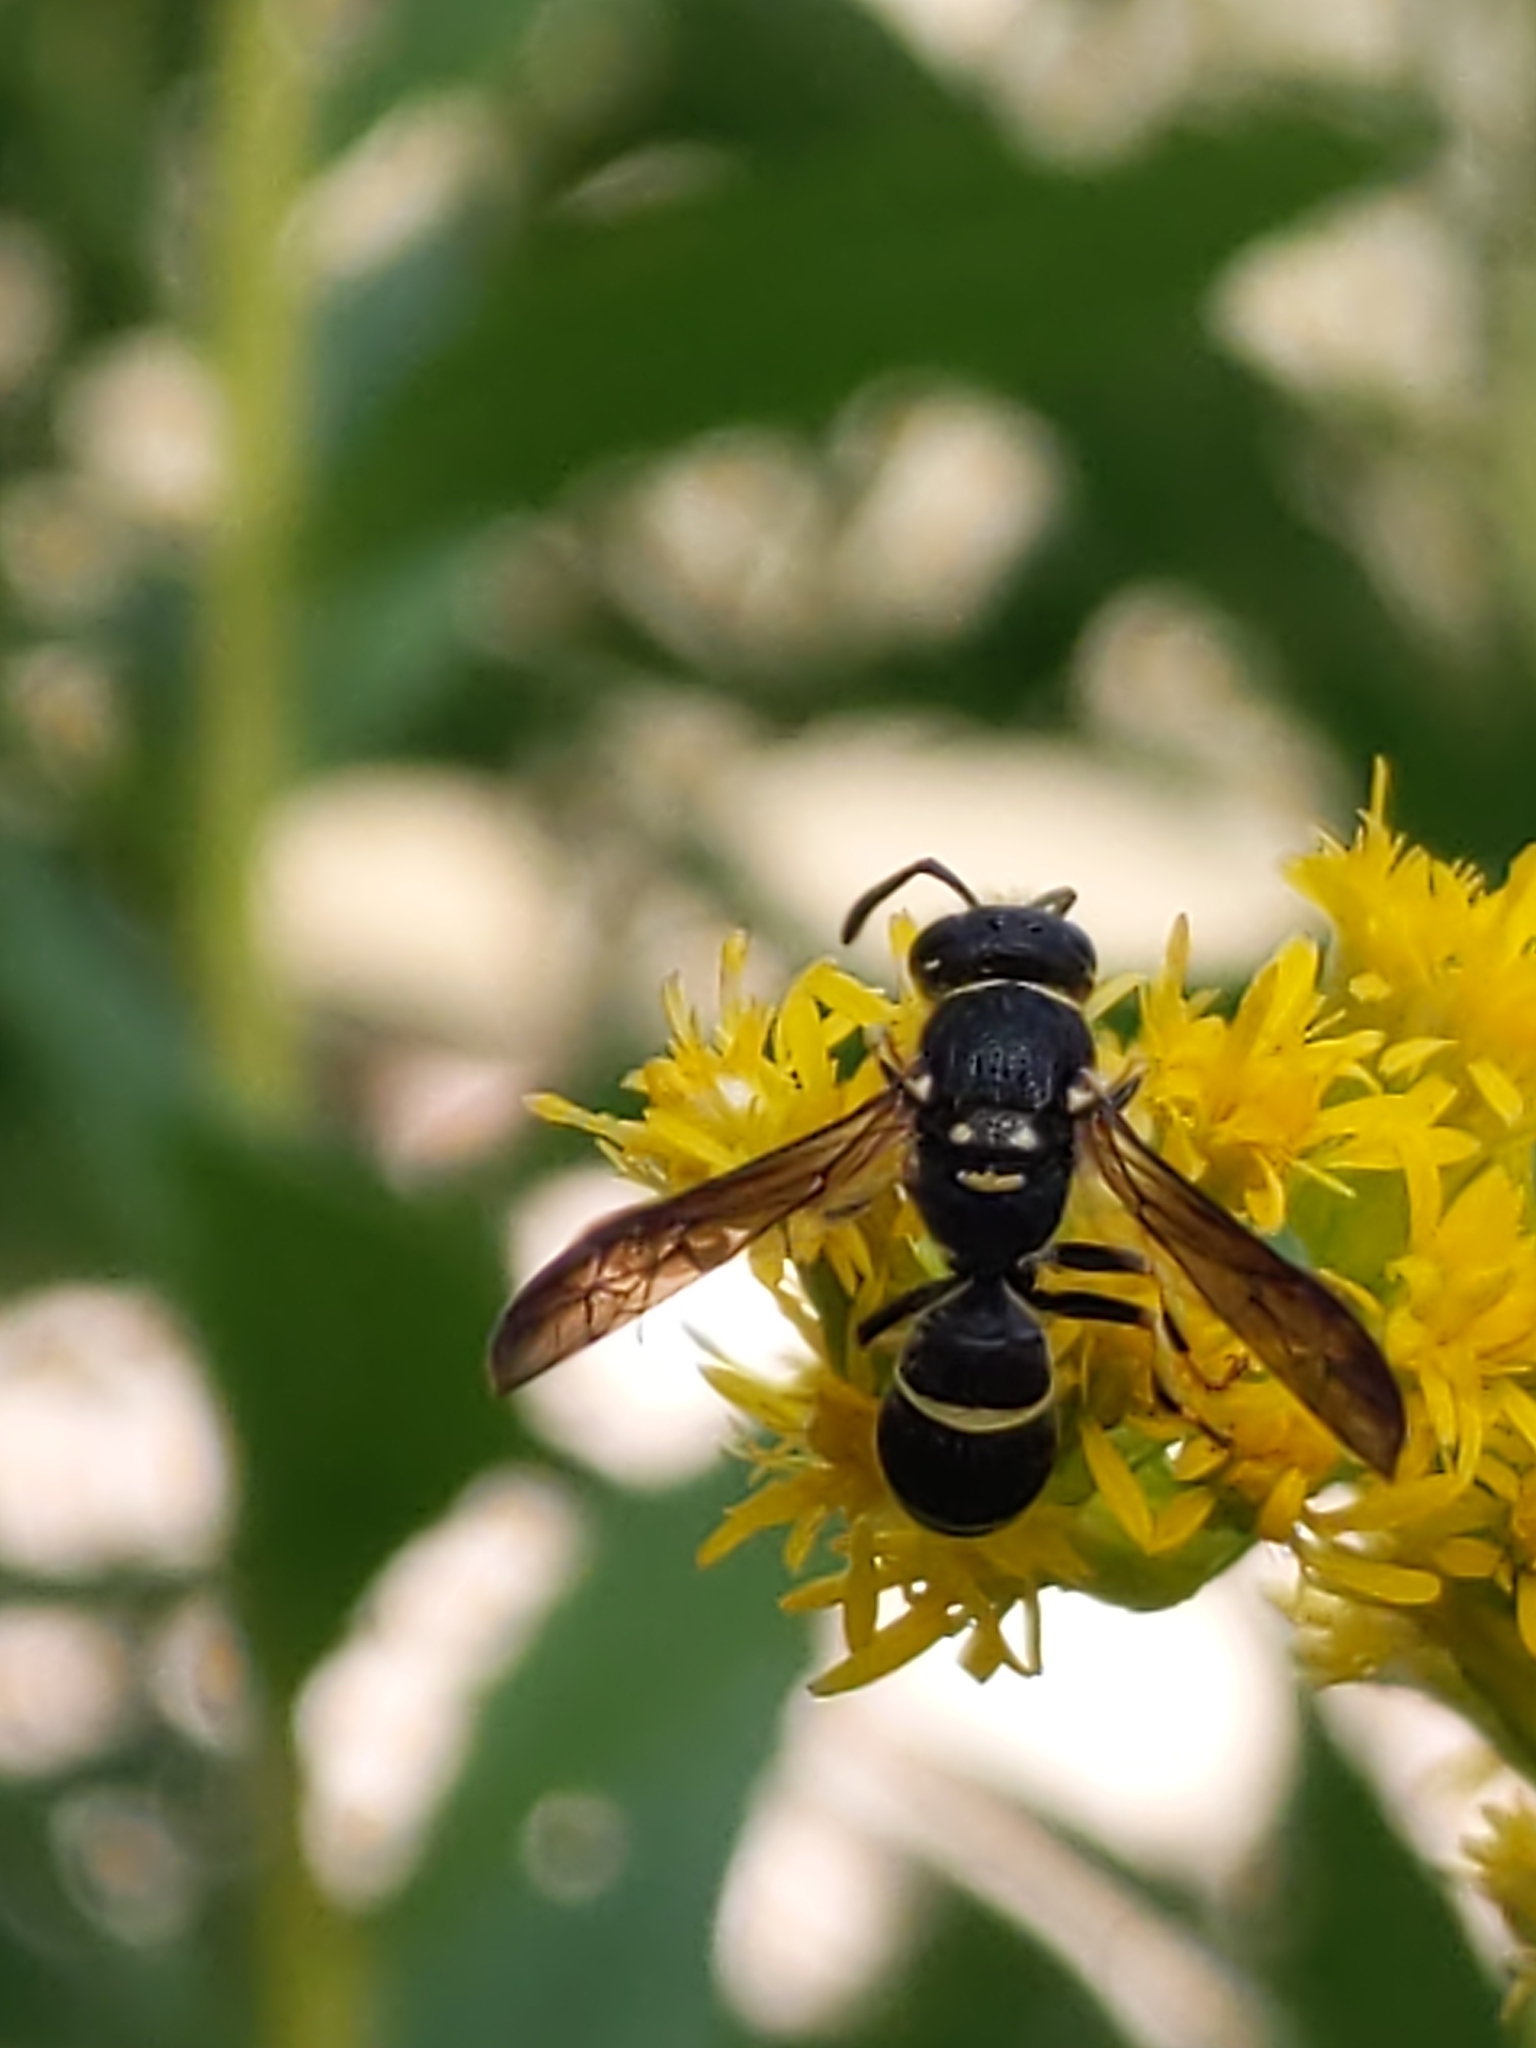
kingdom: Animalia
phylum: Arthropoda
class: Insecta
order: Hymenoptera
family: Vespidae
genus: Ancistrocerus
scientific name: Ancistrocerus adiabatus
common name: Bramble mason wasp
